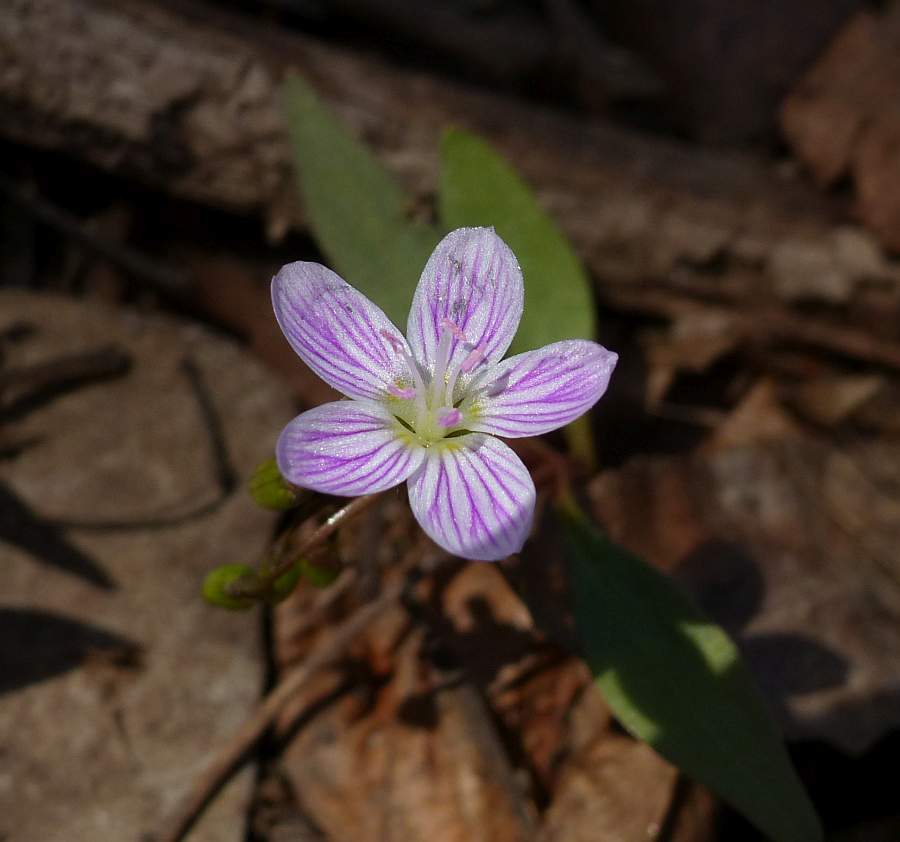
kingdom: Plantae
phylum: Tracheophyta
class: Magnoliopsida
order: Caryophyllales
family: Montiaceae
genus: Claytonia
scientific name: Claytonia caroliniana
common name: Carolina spring beauty
